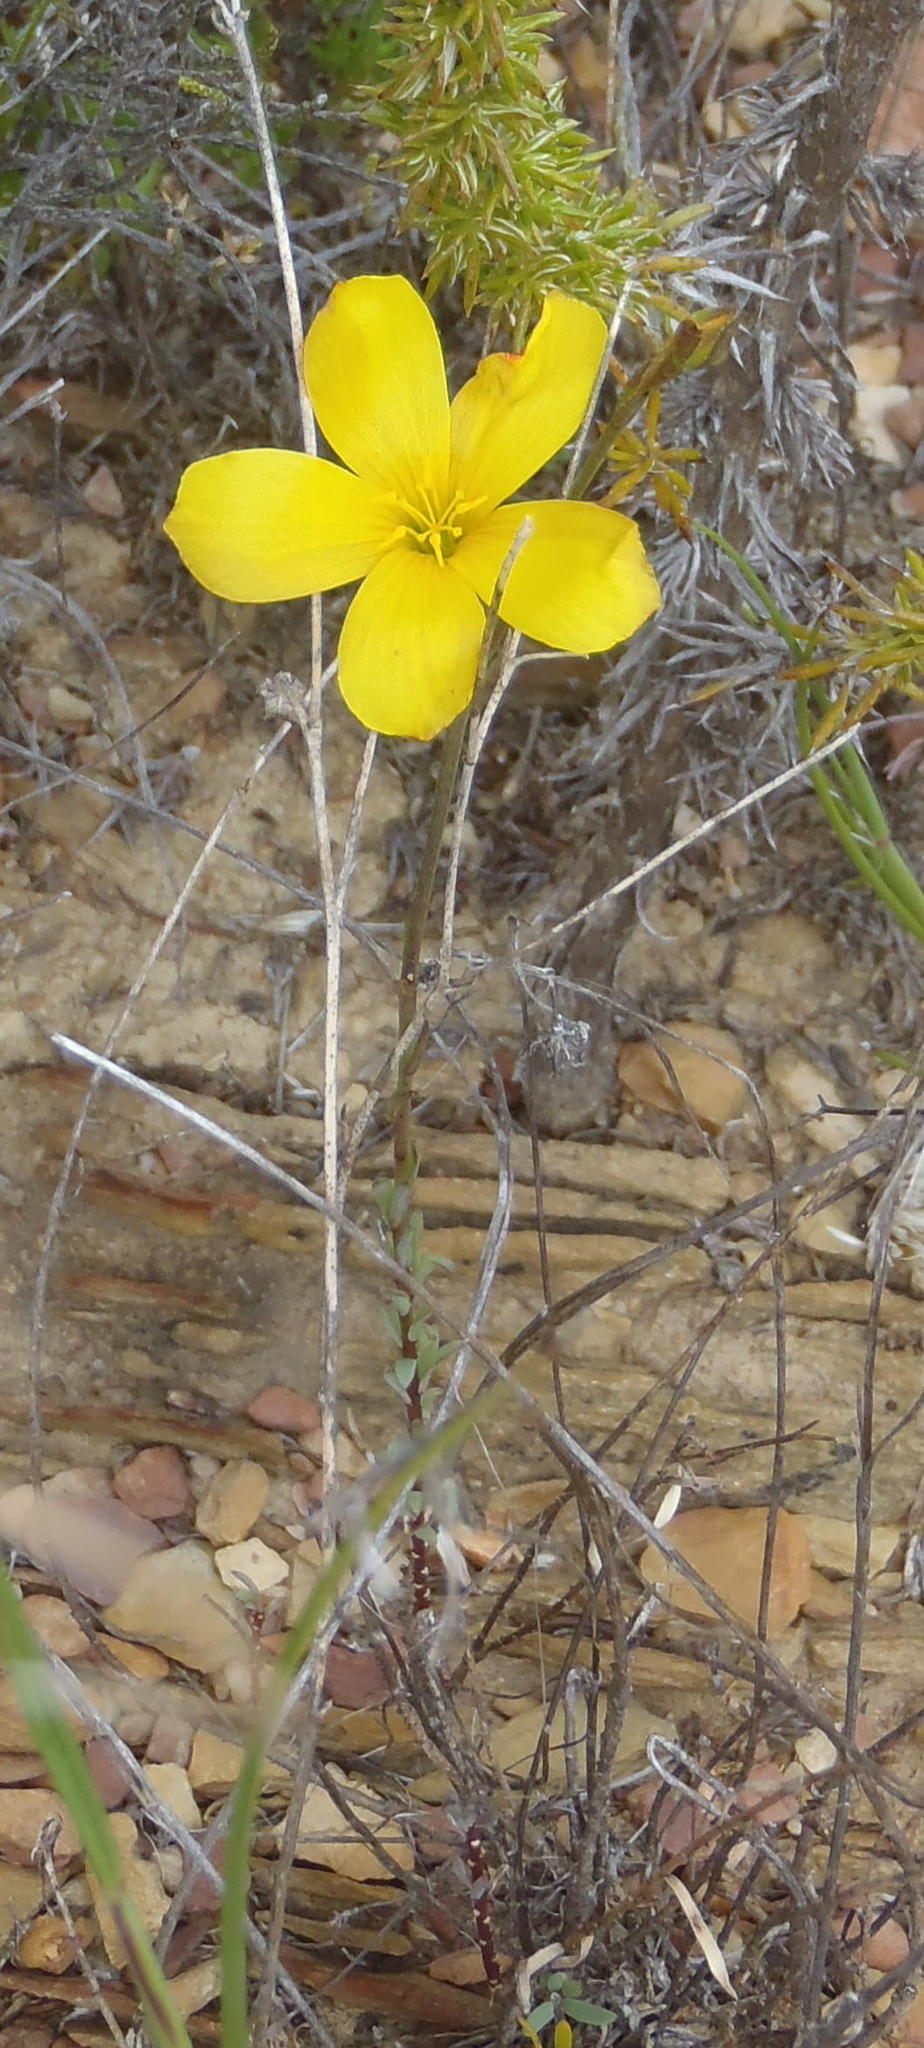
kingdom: Plantae
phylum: Tracheophyta
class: Magnoliopsida
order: Malpighiales
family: Linaceae
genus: Linum
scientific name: Linum africanum
